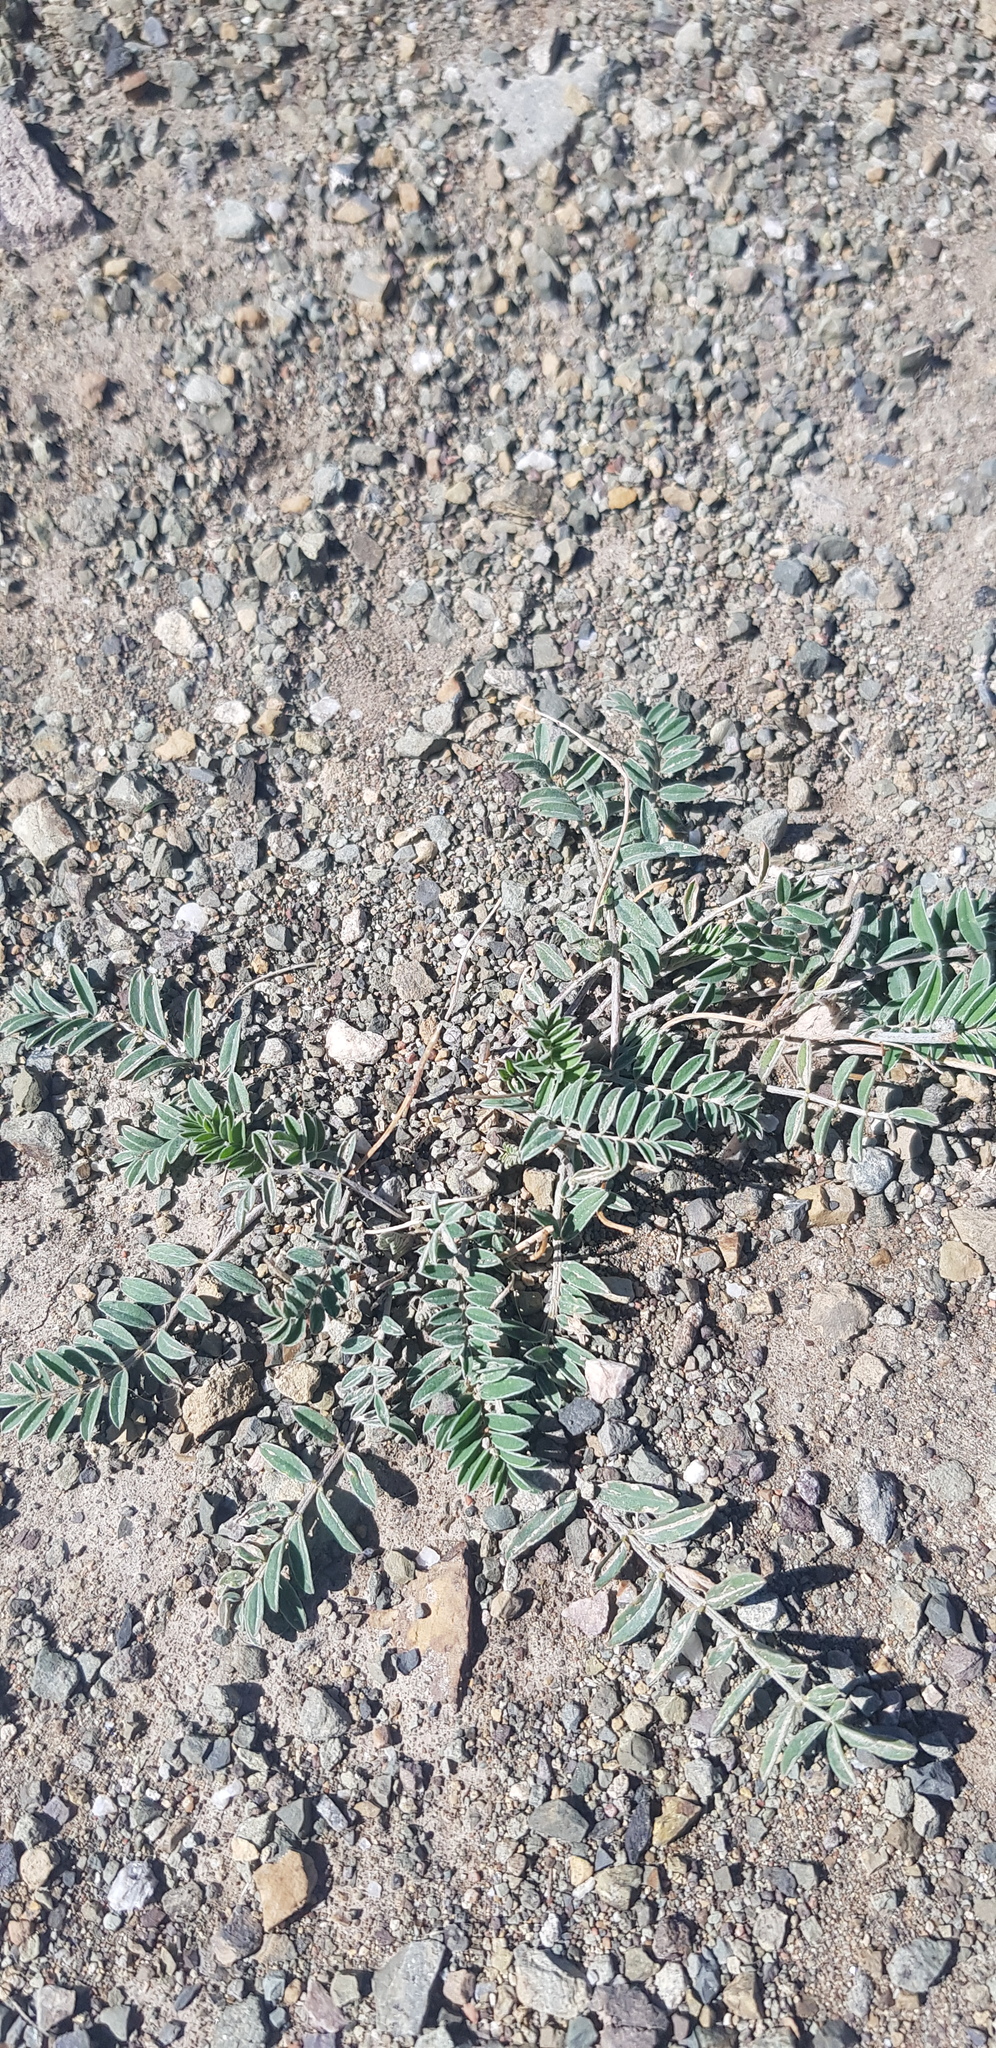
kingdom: Plantae
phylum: Tracheophyta
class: Magnoliopsida
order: Zygophyllales
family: Zygophyllaceae
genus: Tribulus
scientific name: Tribulus terrestris
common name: Puncturevine
